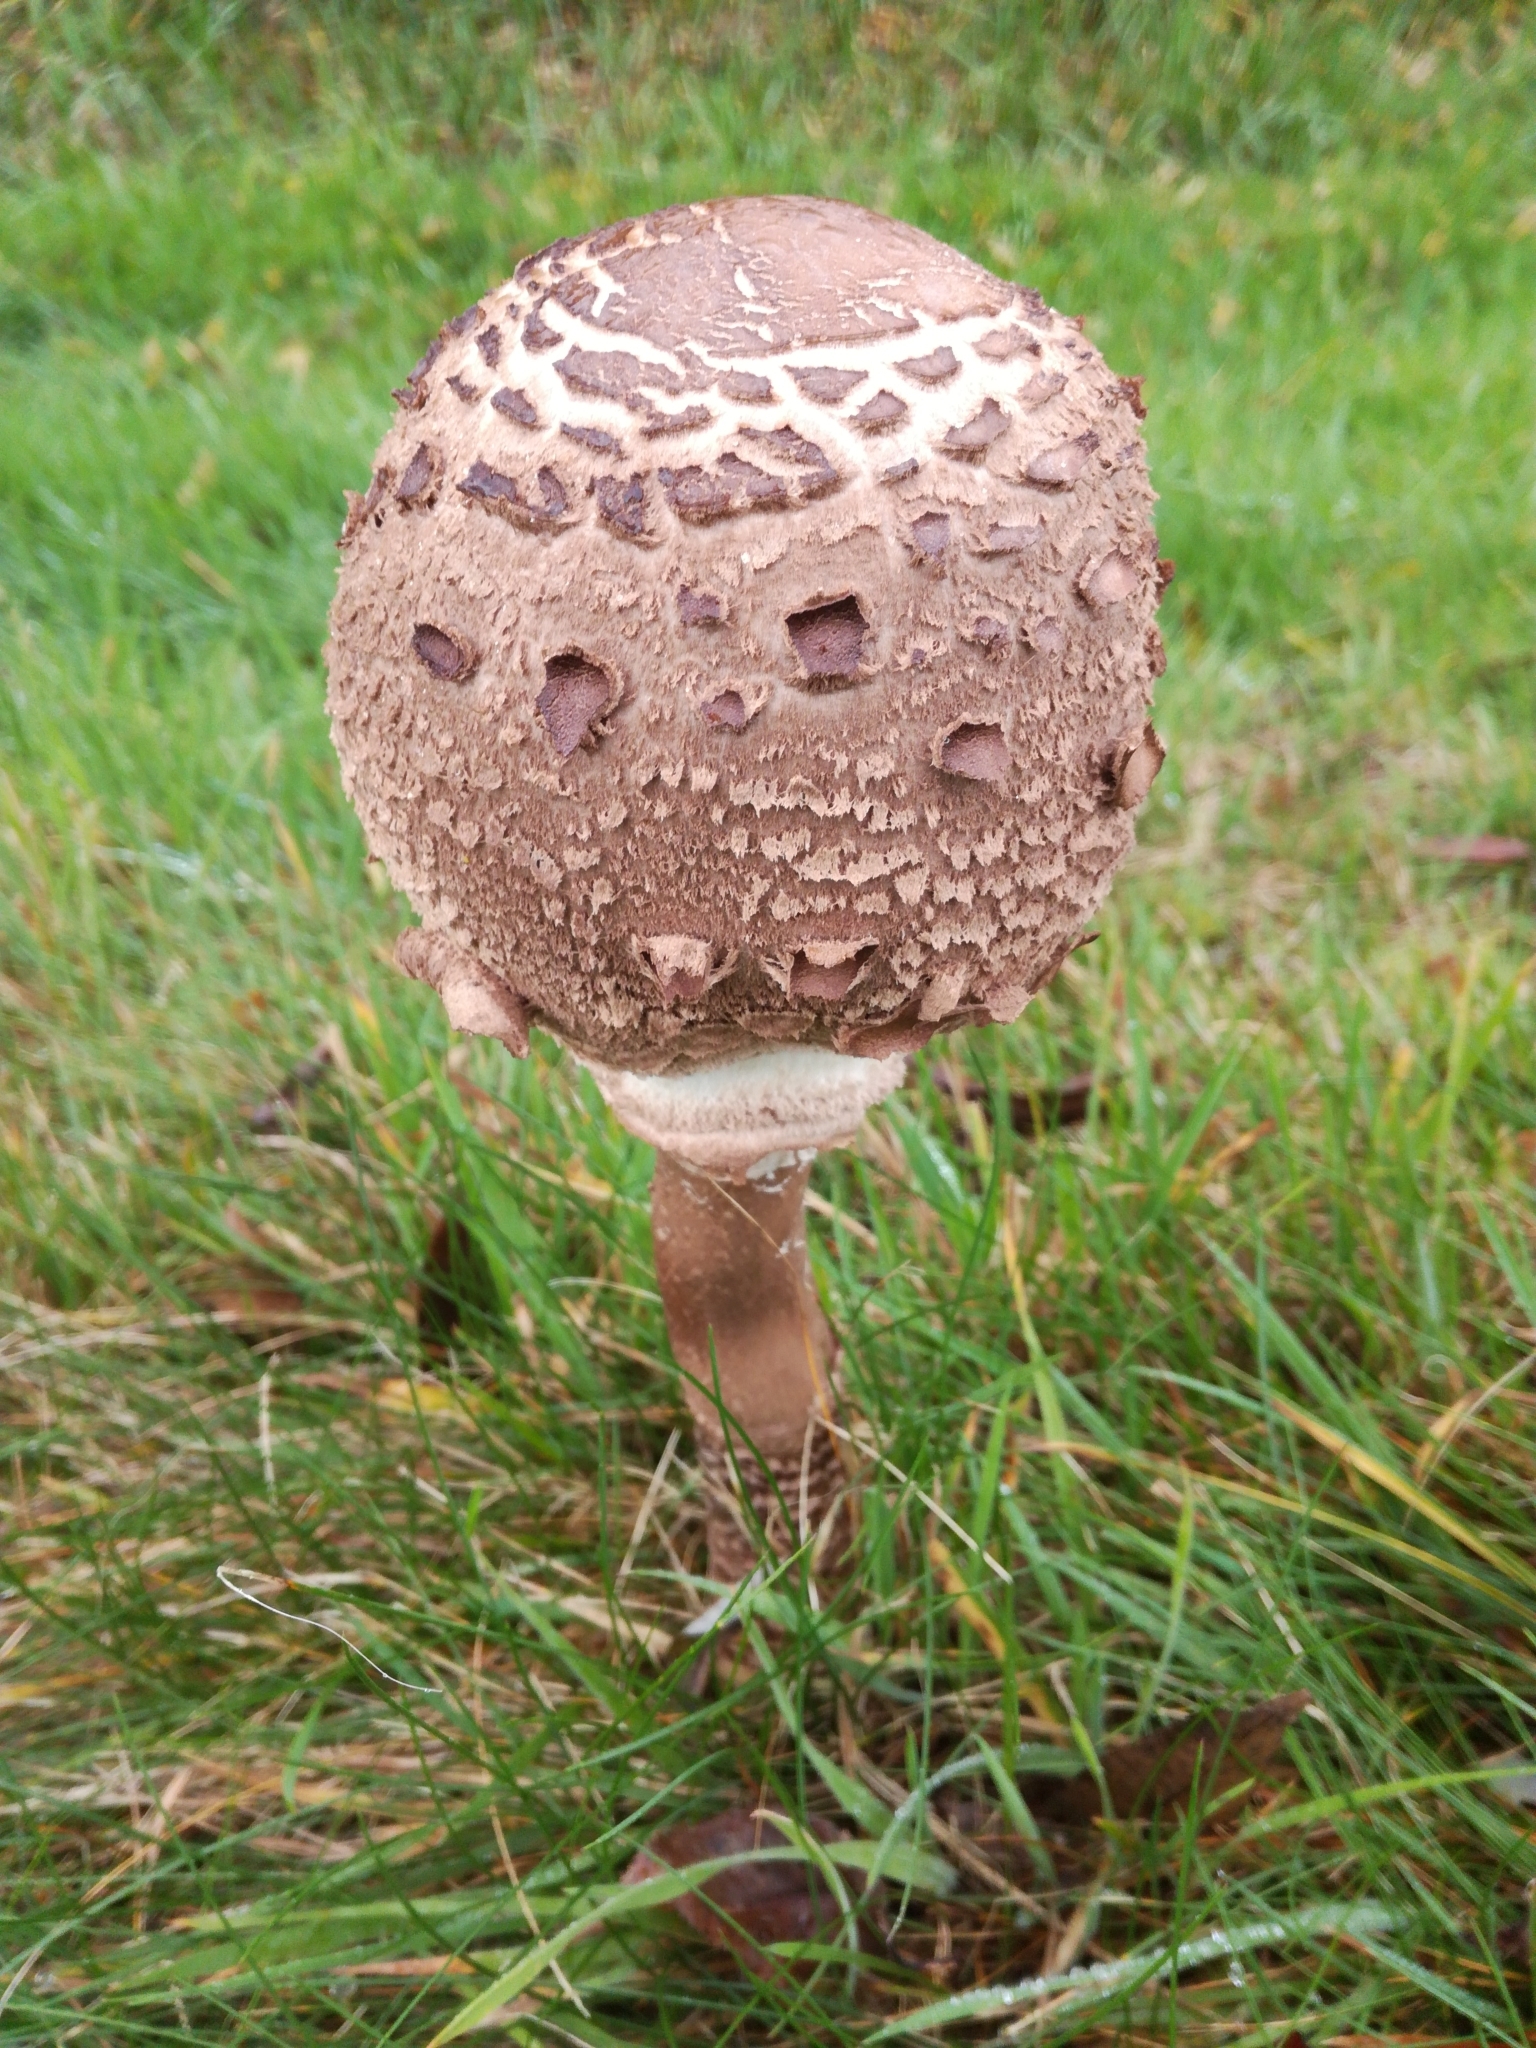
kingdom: Fungi
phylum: Basidiomycota
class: Agaricomycetes
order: Agaricales
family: Agaricaceae
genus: Macrolepiota
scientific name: Macrolepiota procera
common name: Parasol
